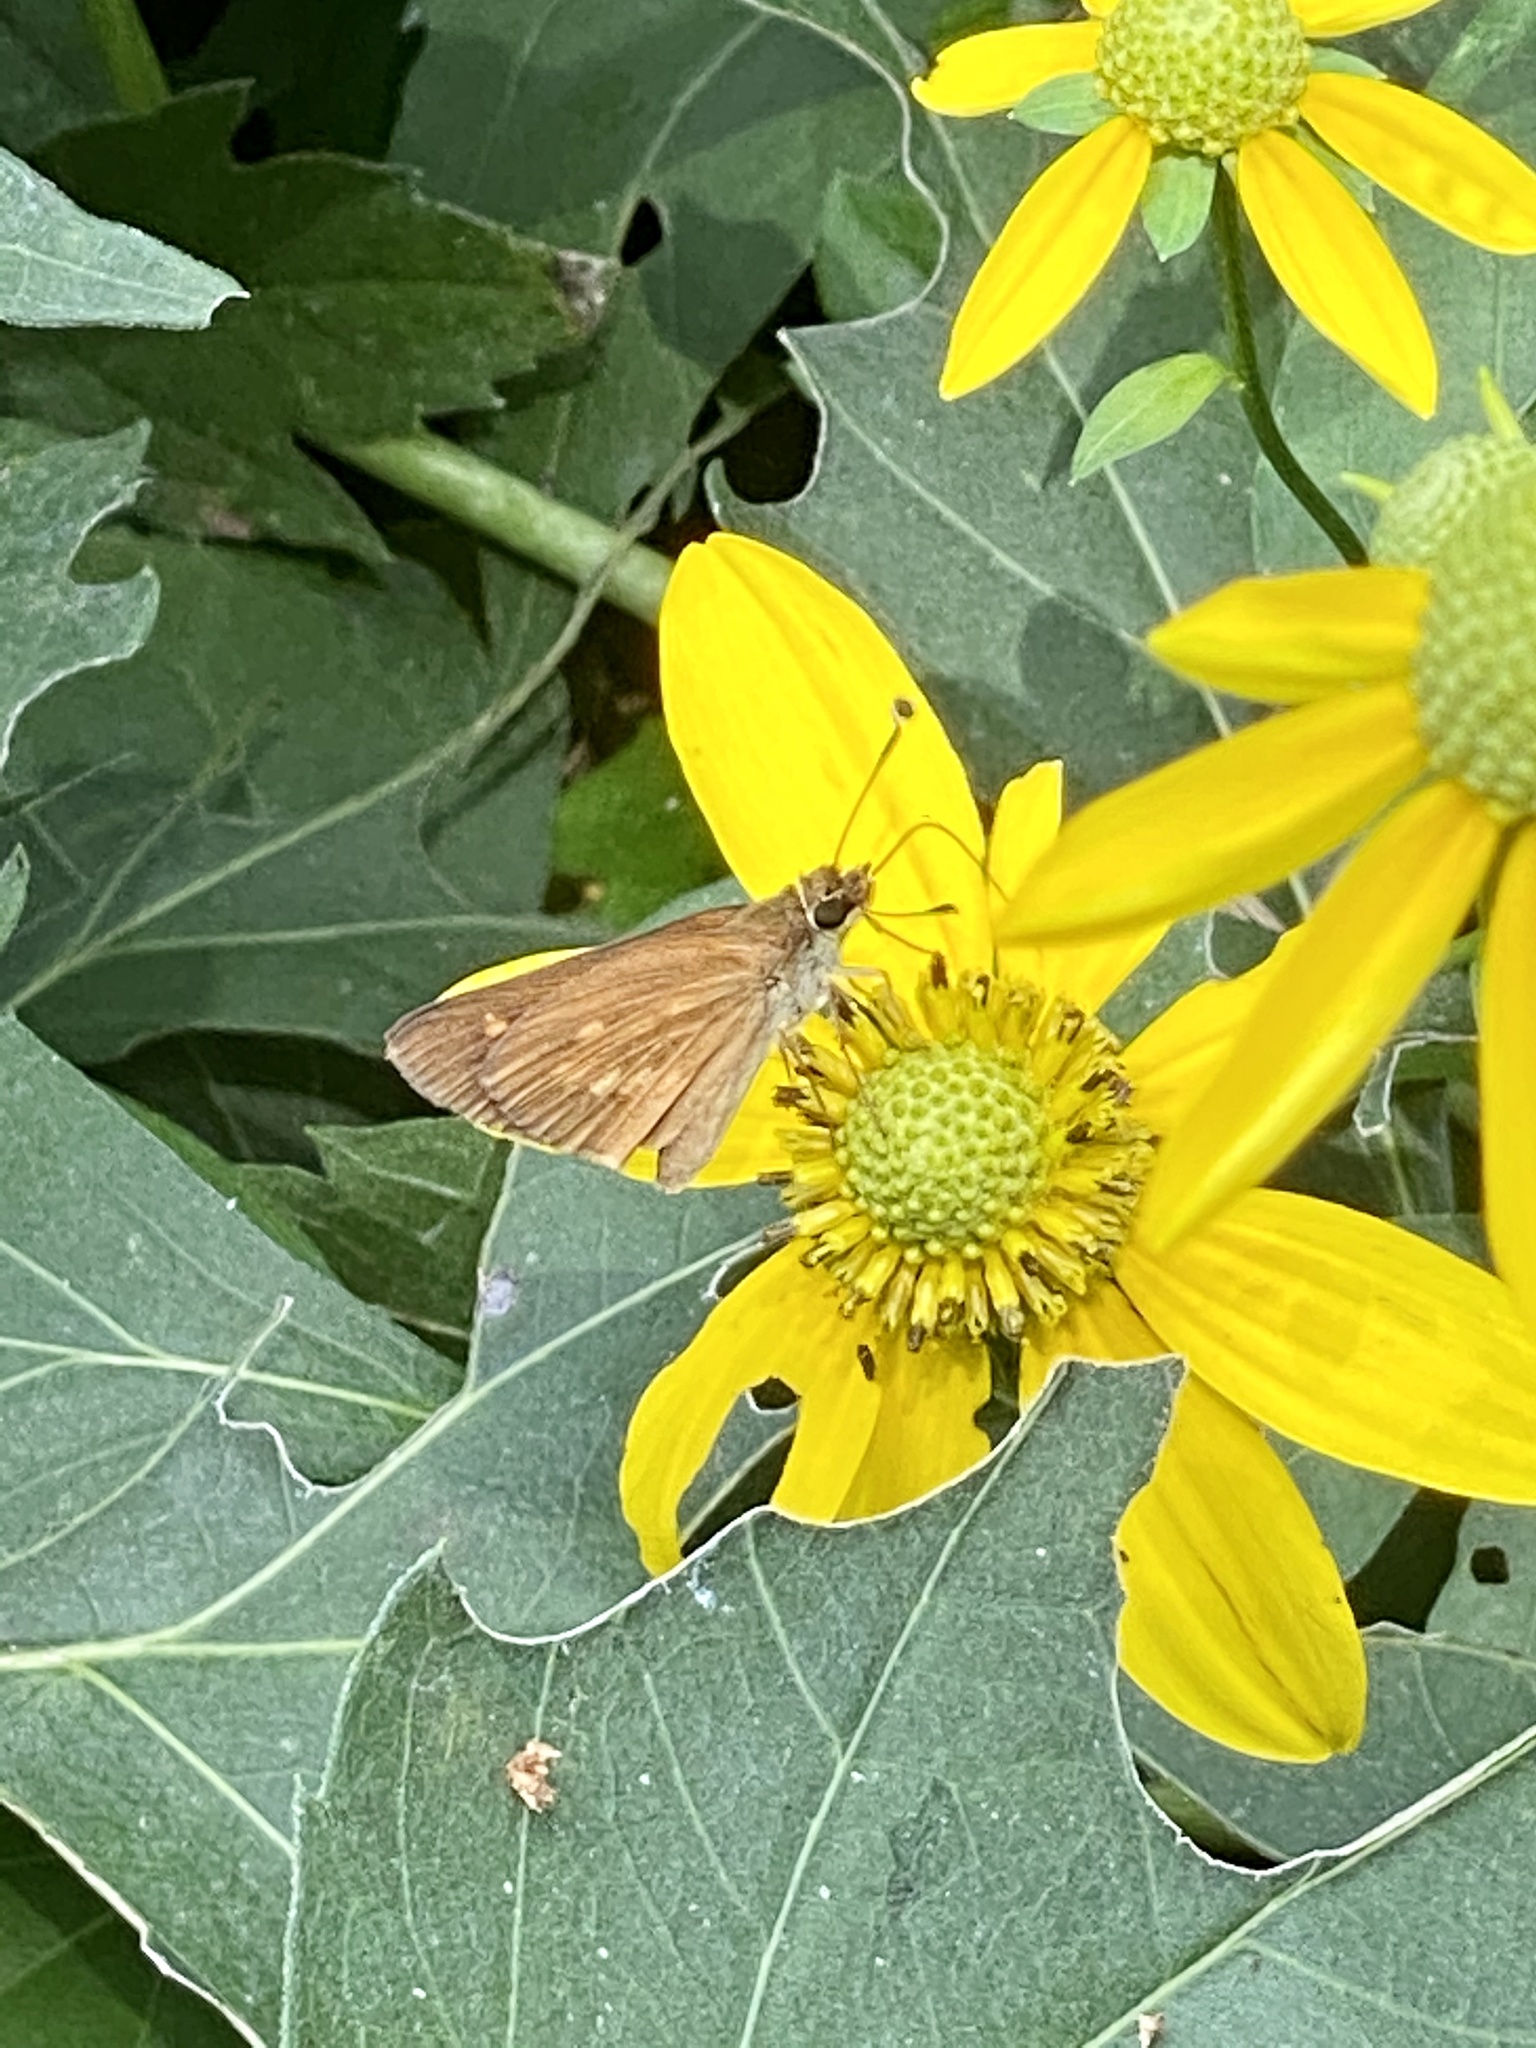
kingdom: Animalia
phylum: Arthropoda
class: Insecta
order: Lepidoptera
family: Hesperiidae
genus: Poanes
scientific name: Poanes viator
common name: Broad-winged skipper
